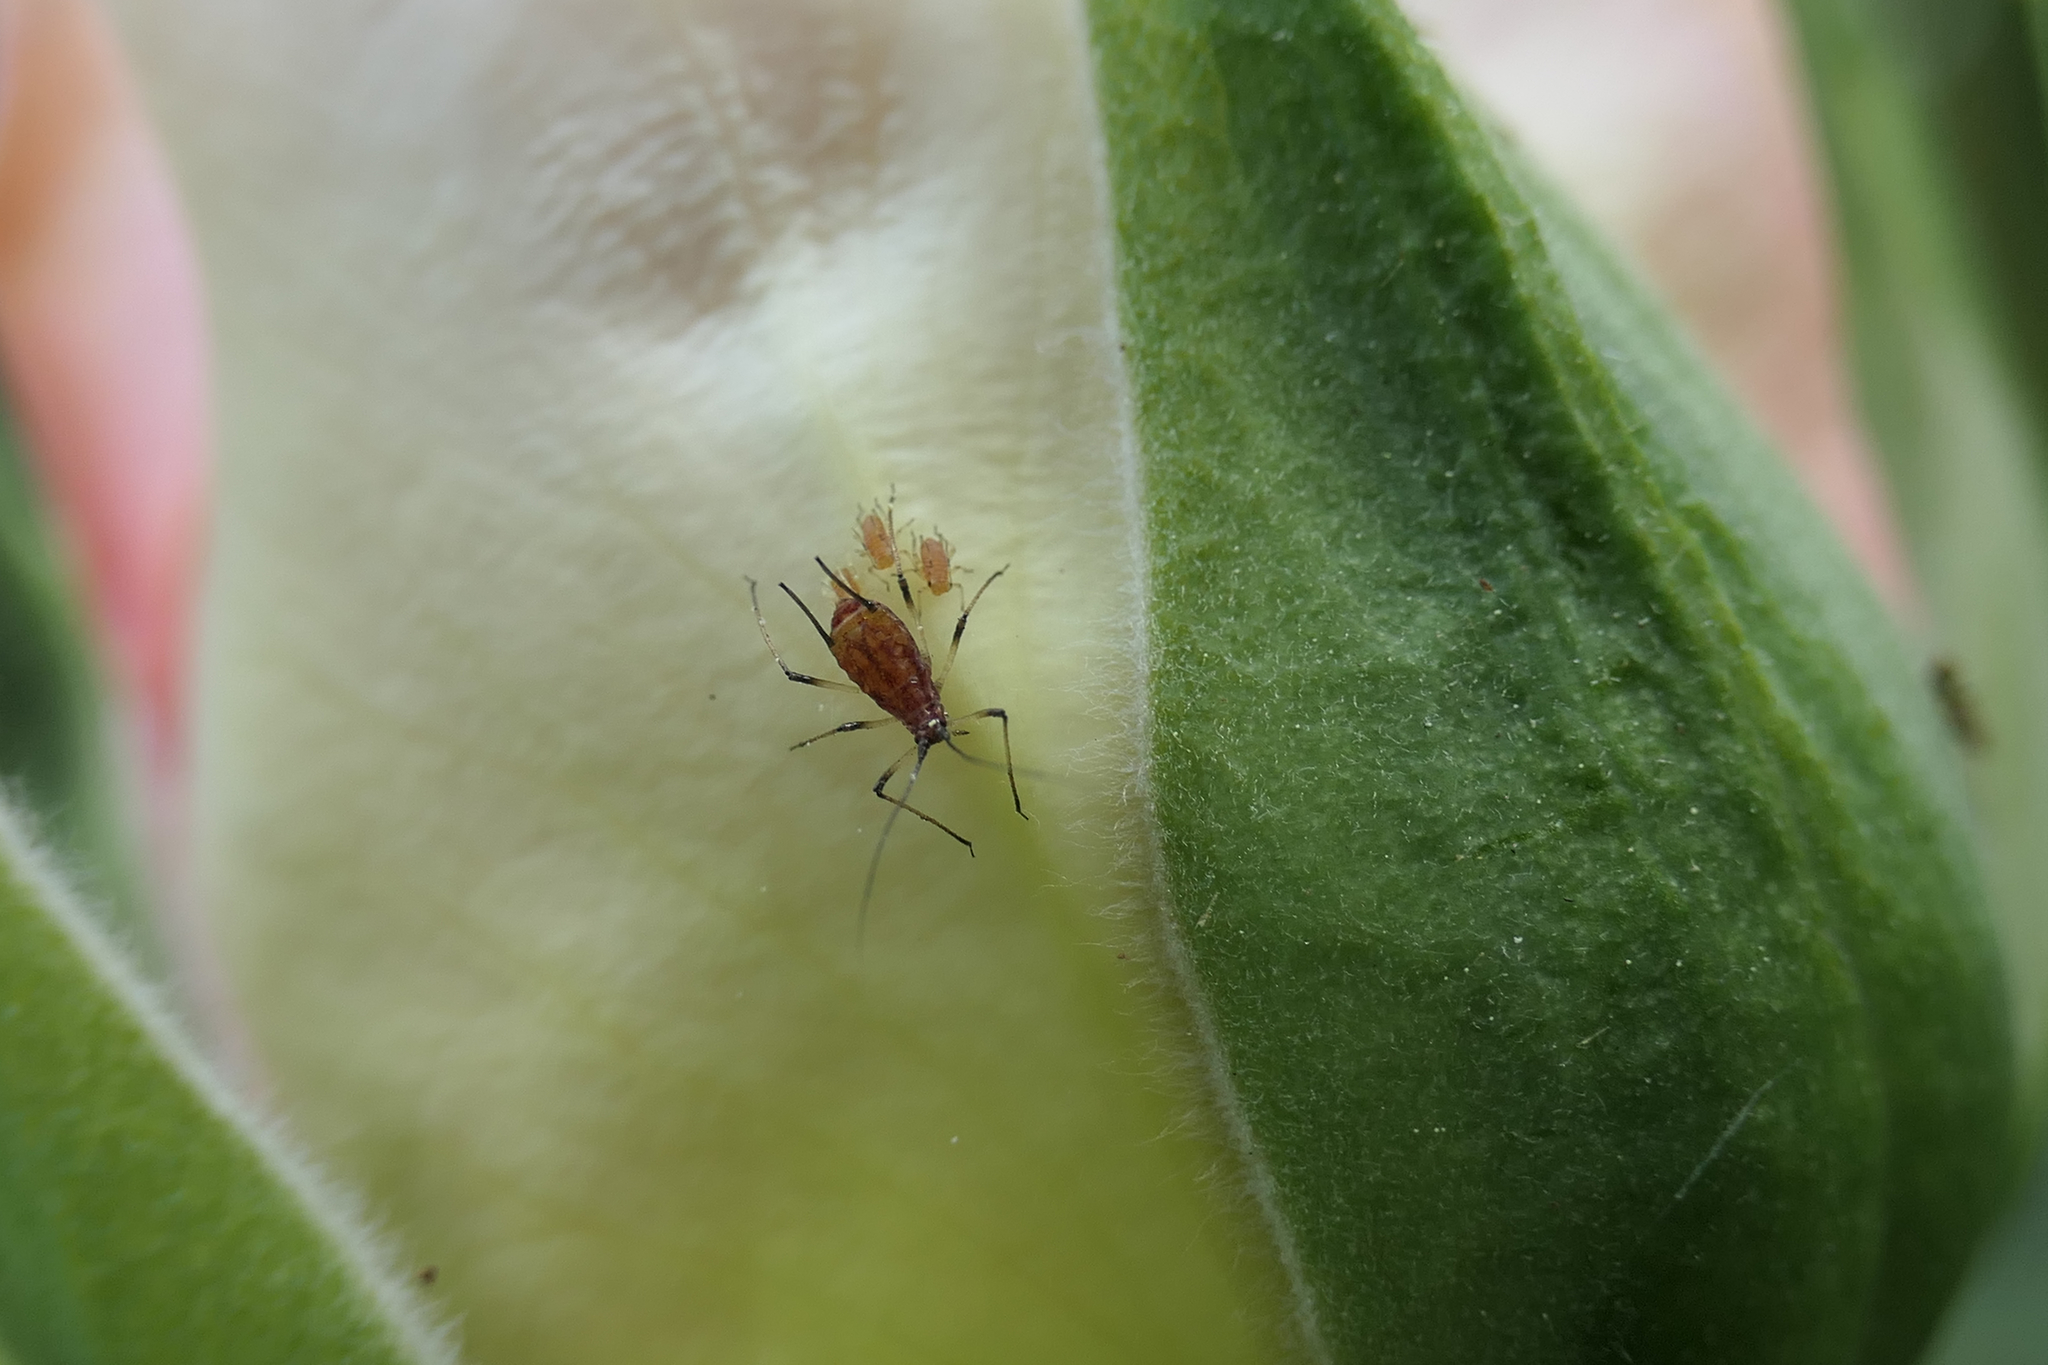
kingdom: Animalia
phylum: Arthropoda
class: Insecta
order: Hemiptera
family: Aphididae
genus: Macrosiphum
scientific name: Macrosiphum rosae
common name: Rose aphid
